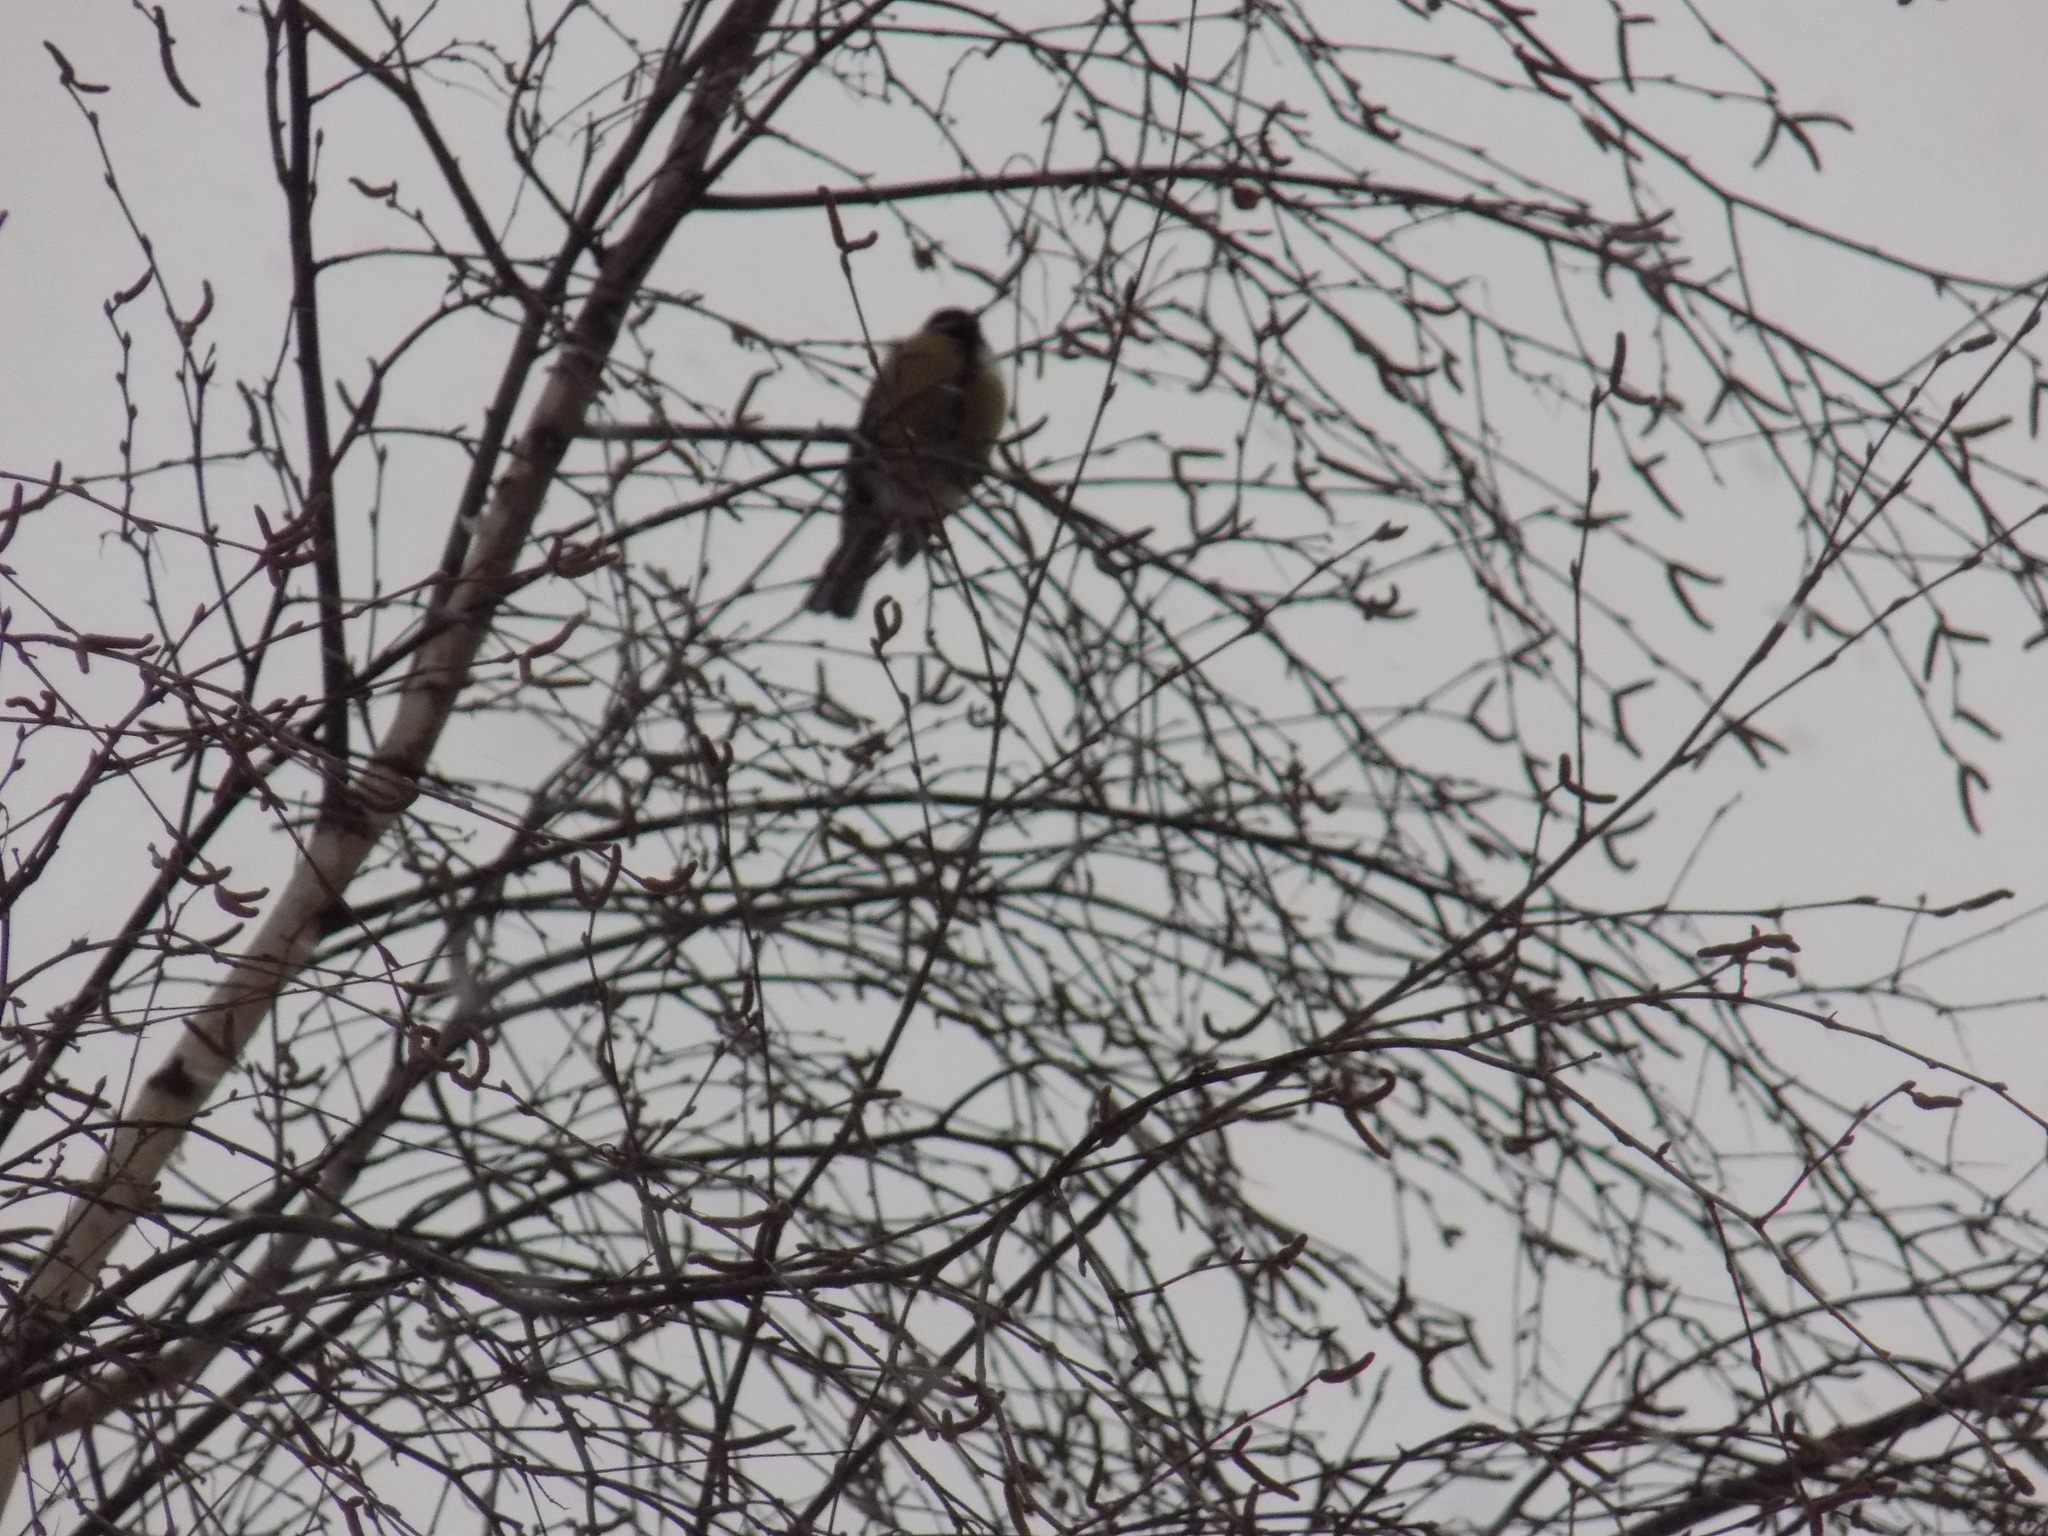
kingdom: Animalia
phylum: Chordata
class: Aves
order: Passeriformes
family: Paridae
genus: Parus
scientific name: Parus major
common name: Great tit
